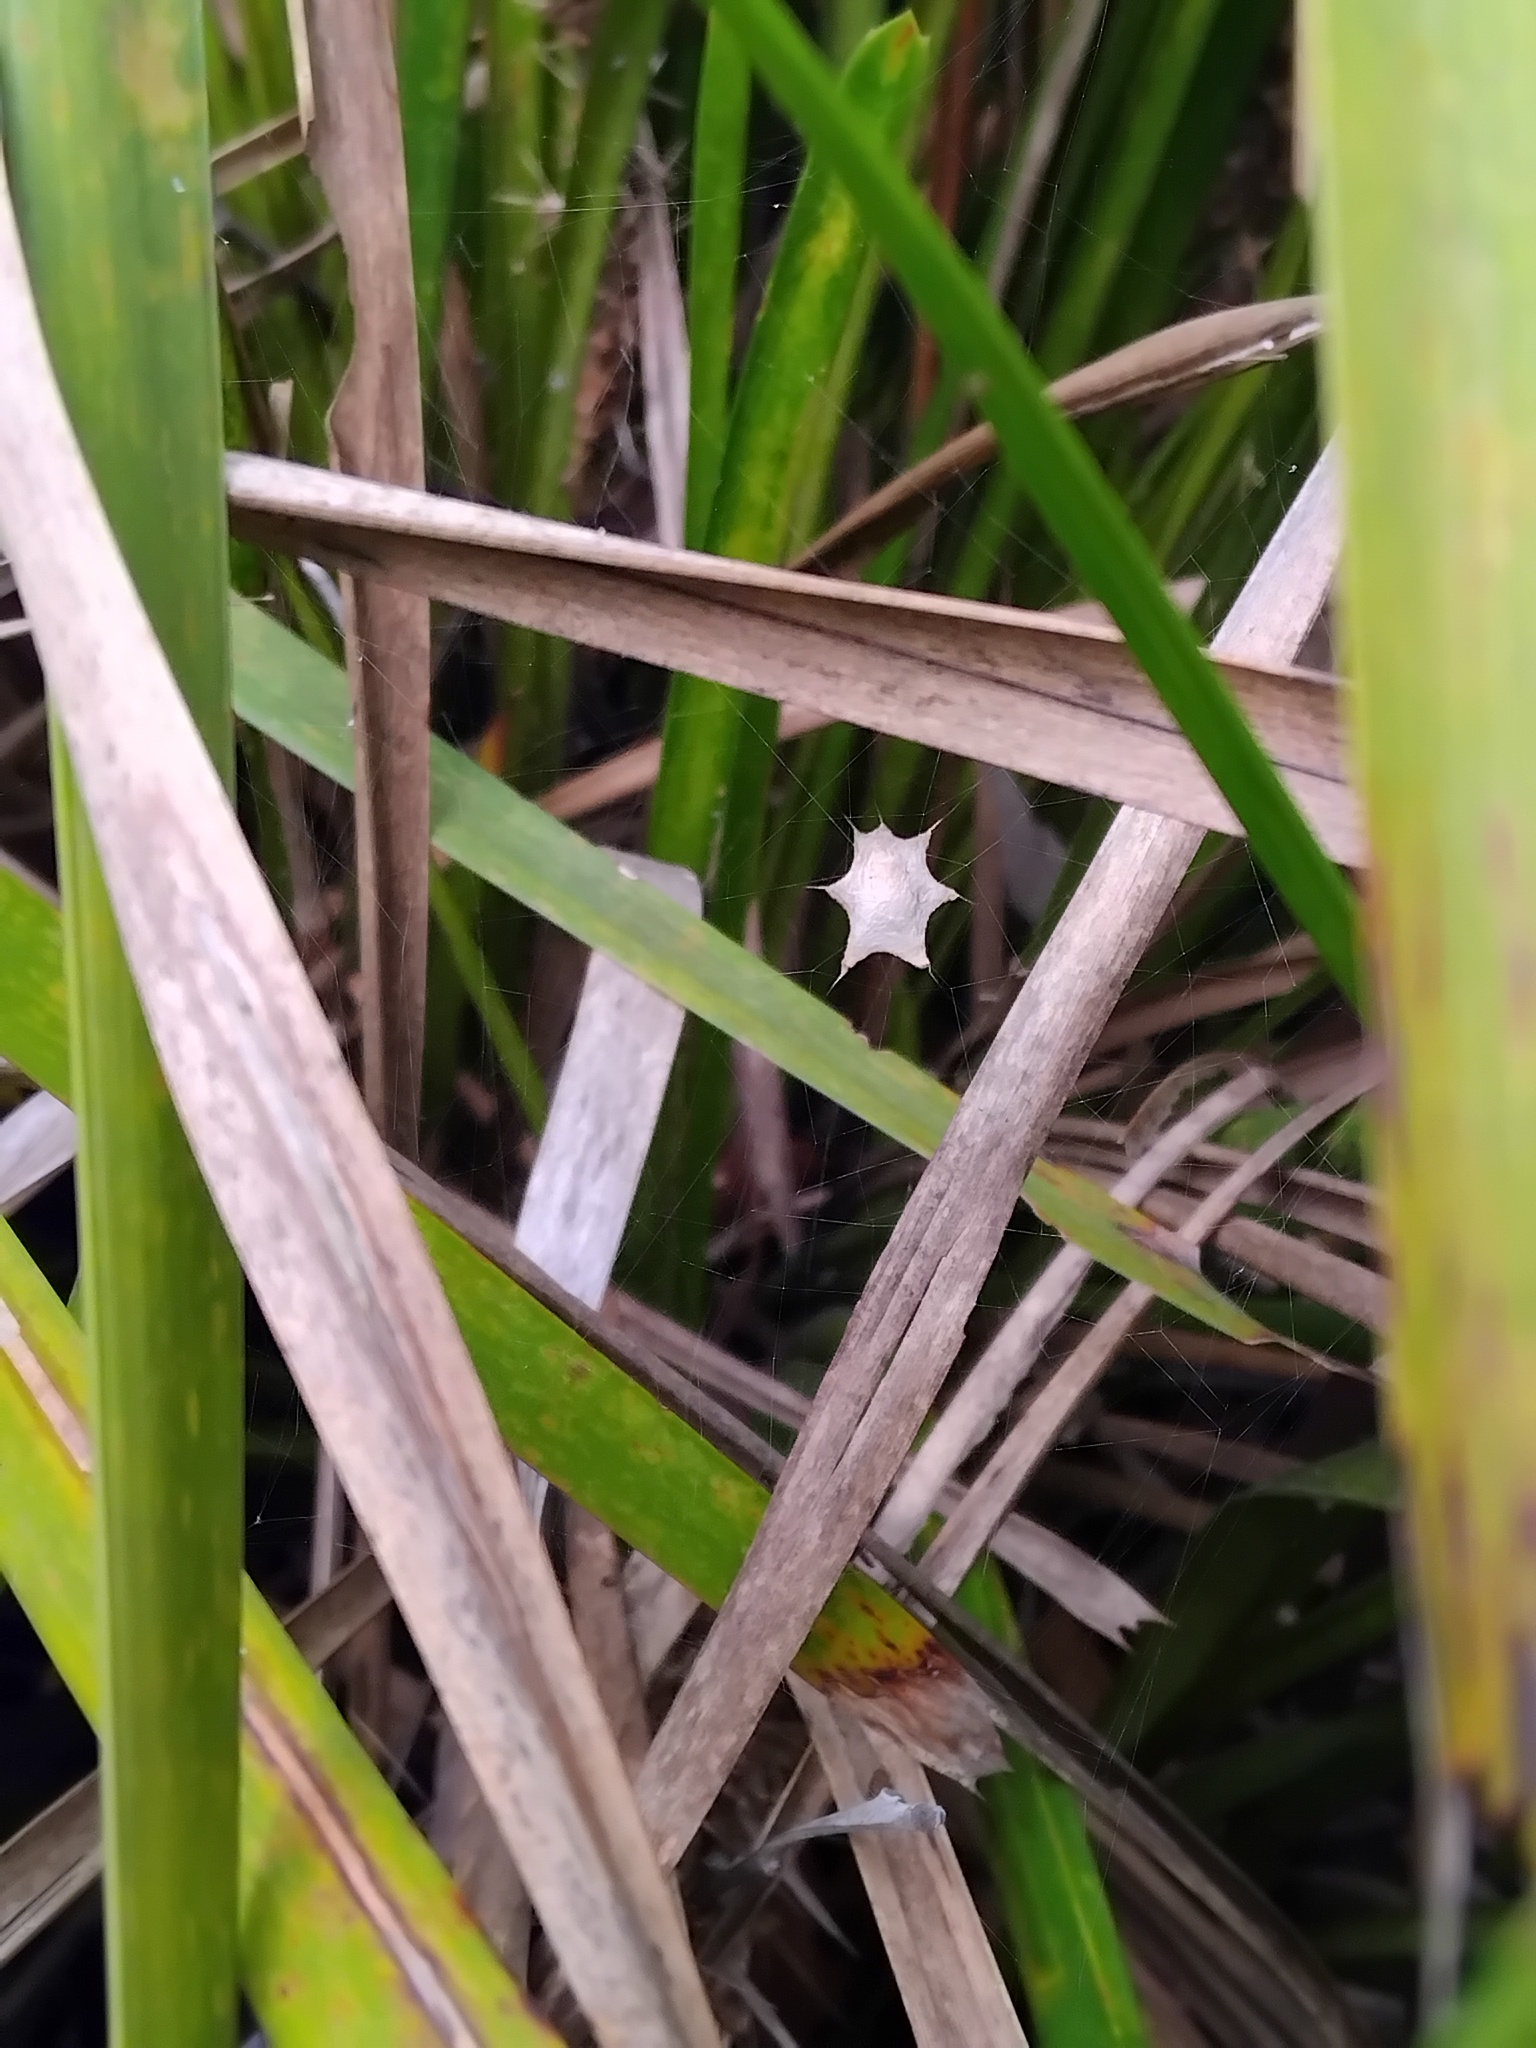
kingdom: Animalia
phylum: Arthropoda
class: Arachnida
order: Araneae
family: Uloboridae
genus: Zosis
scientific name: Zosis geniculata
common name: Hackled orb weavers
